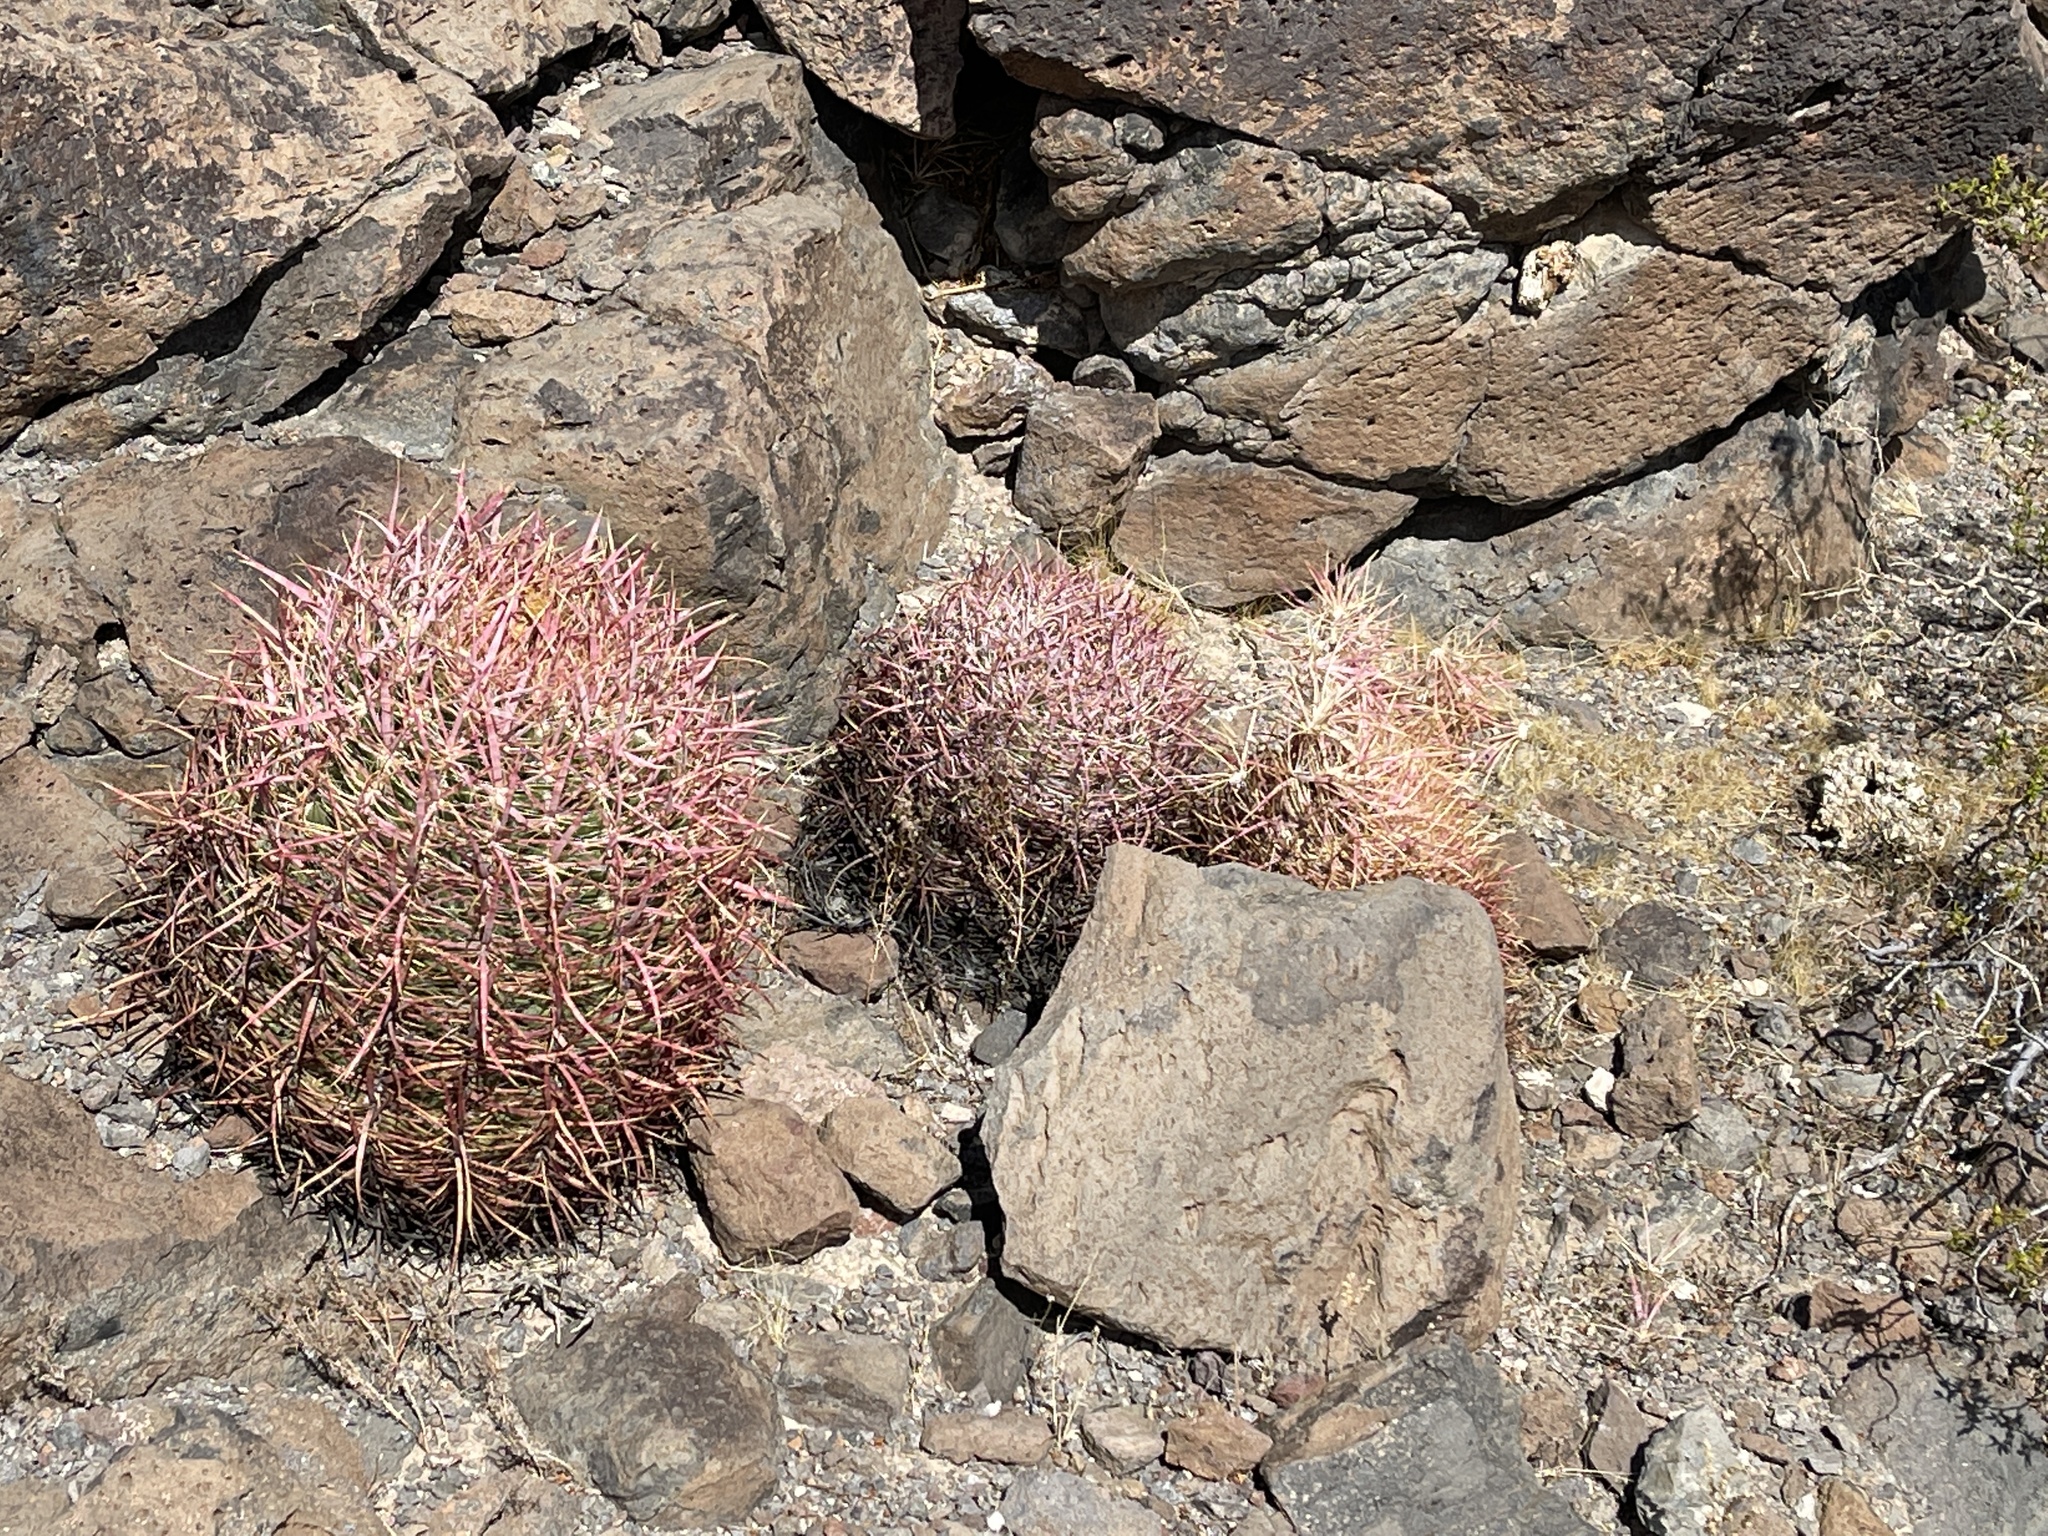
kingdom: Plantae
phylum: Tracheophyta
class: Magnoliopsida
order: Caryophyllales
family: Cactaceae
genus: Ferocactus
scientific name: Ferocactus cylindraceus
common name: California barrel cactus
